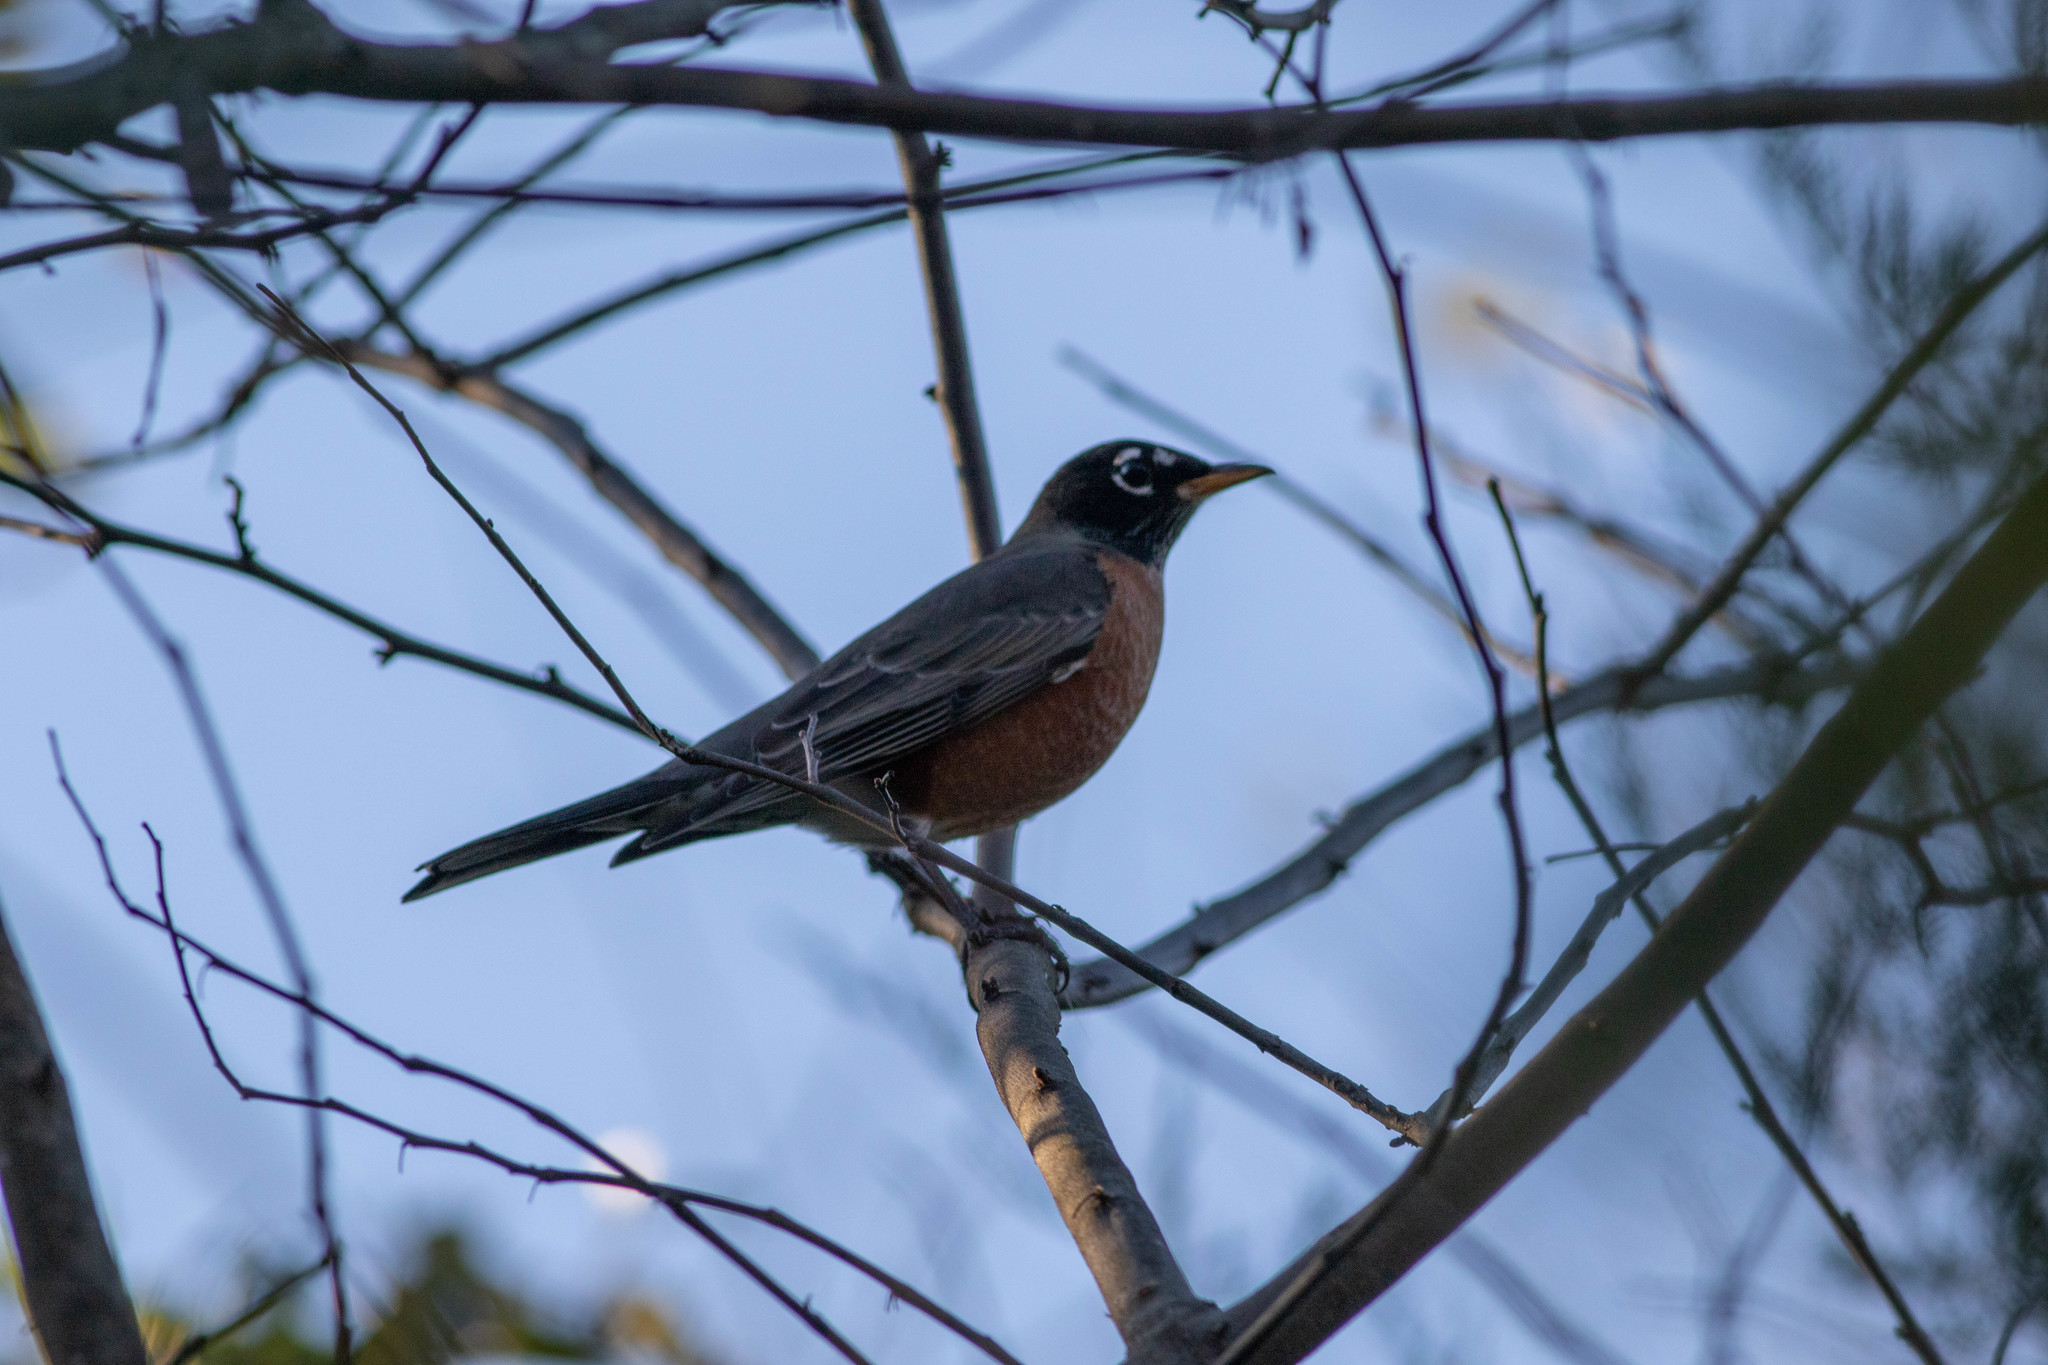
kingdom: Animalia
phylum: Chordata
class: Aves
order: Passeriformes
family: Turdidae
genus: Turdus
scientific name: Turdus migratorius
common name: American robin
